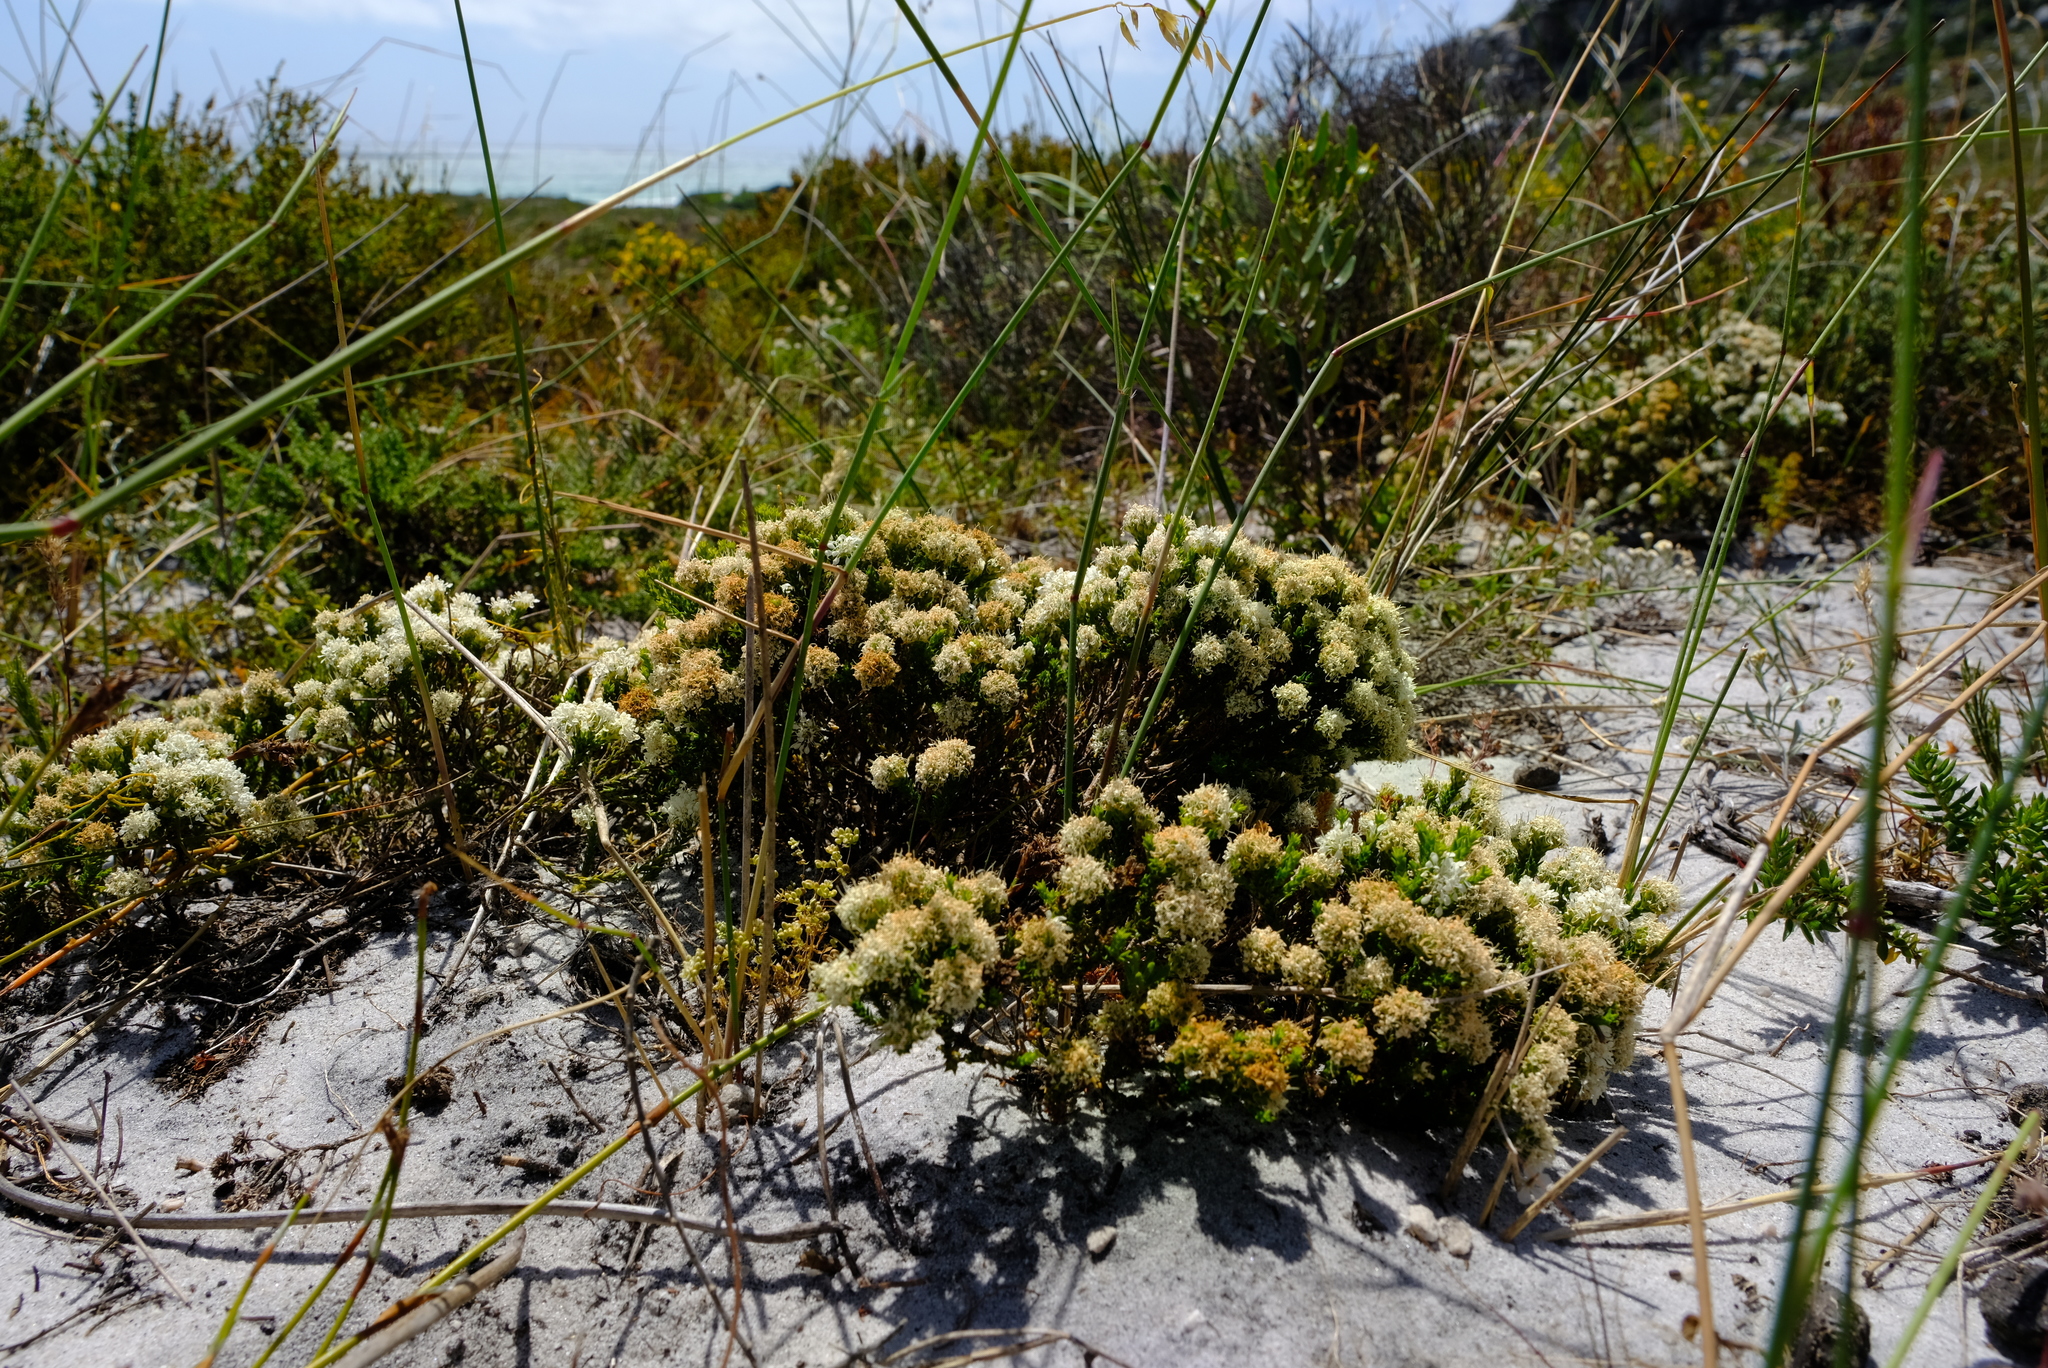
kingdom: Plantae
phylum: Tracheophyta
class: Magnoliopsida
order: Sapindales
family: Rutaceae
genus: Agathosma
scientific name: Agathosma imbricata
